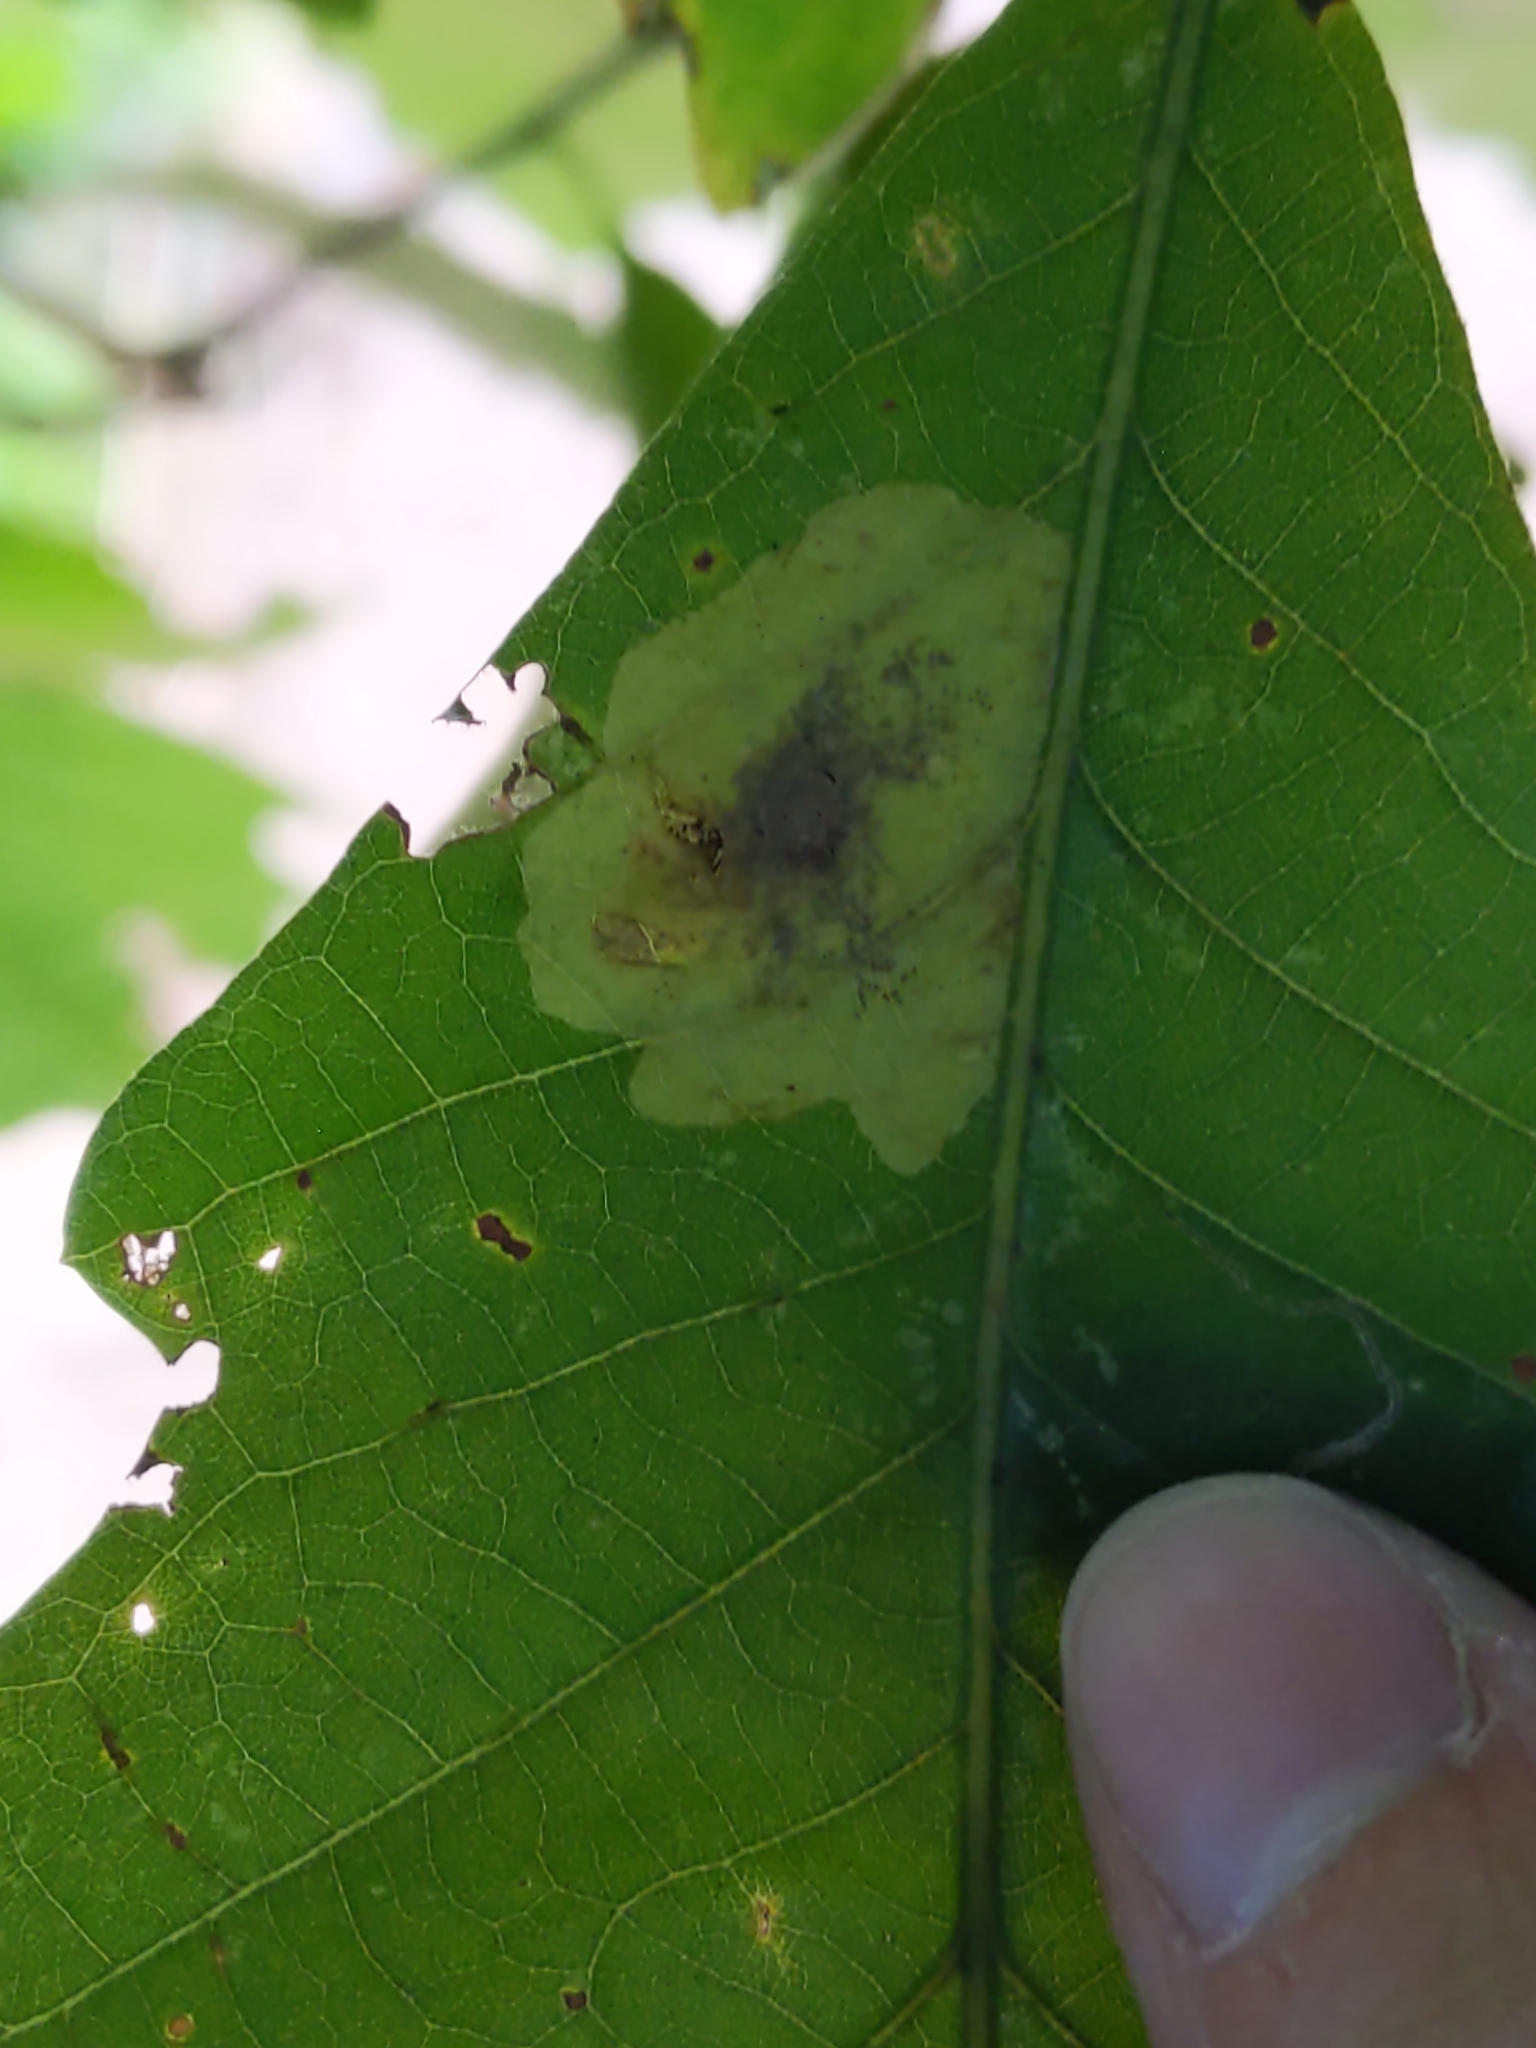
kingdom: Animalia
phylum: Arthropoda
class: Insecta
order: Lepidoptera
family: Gracillariidae
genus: Cameraria
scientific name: Cameraria
